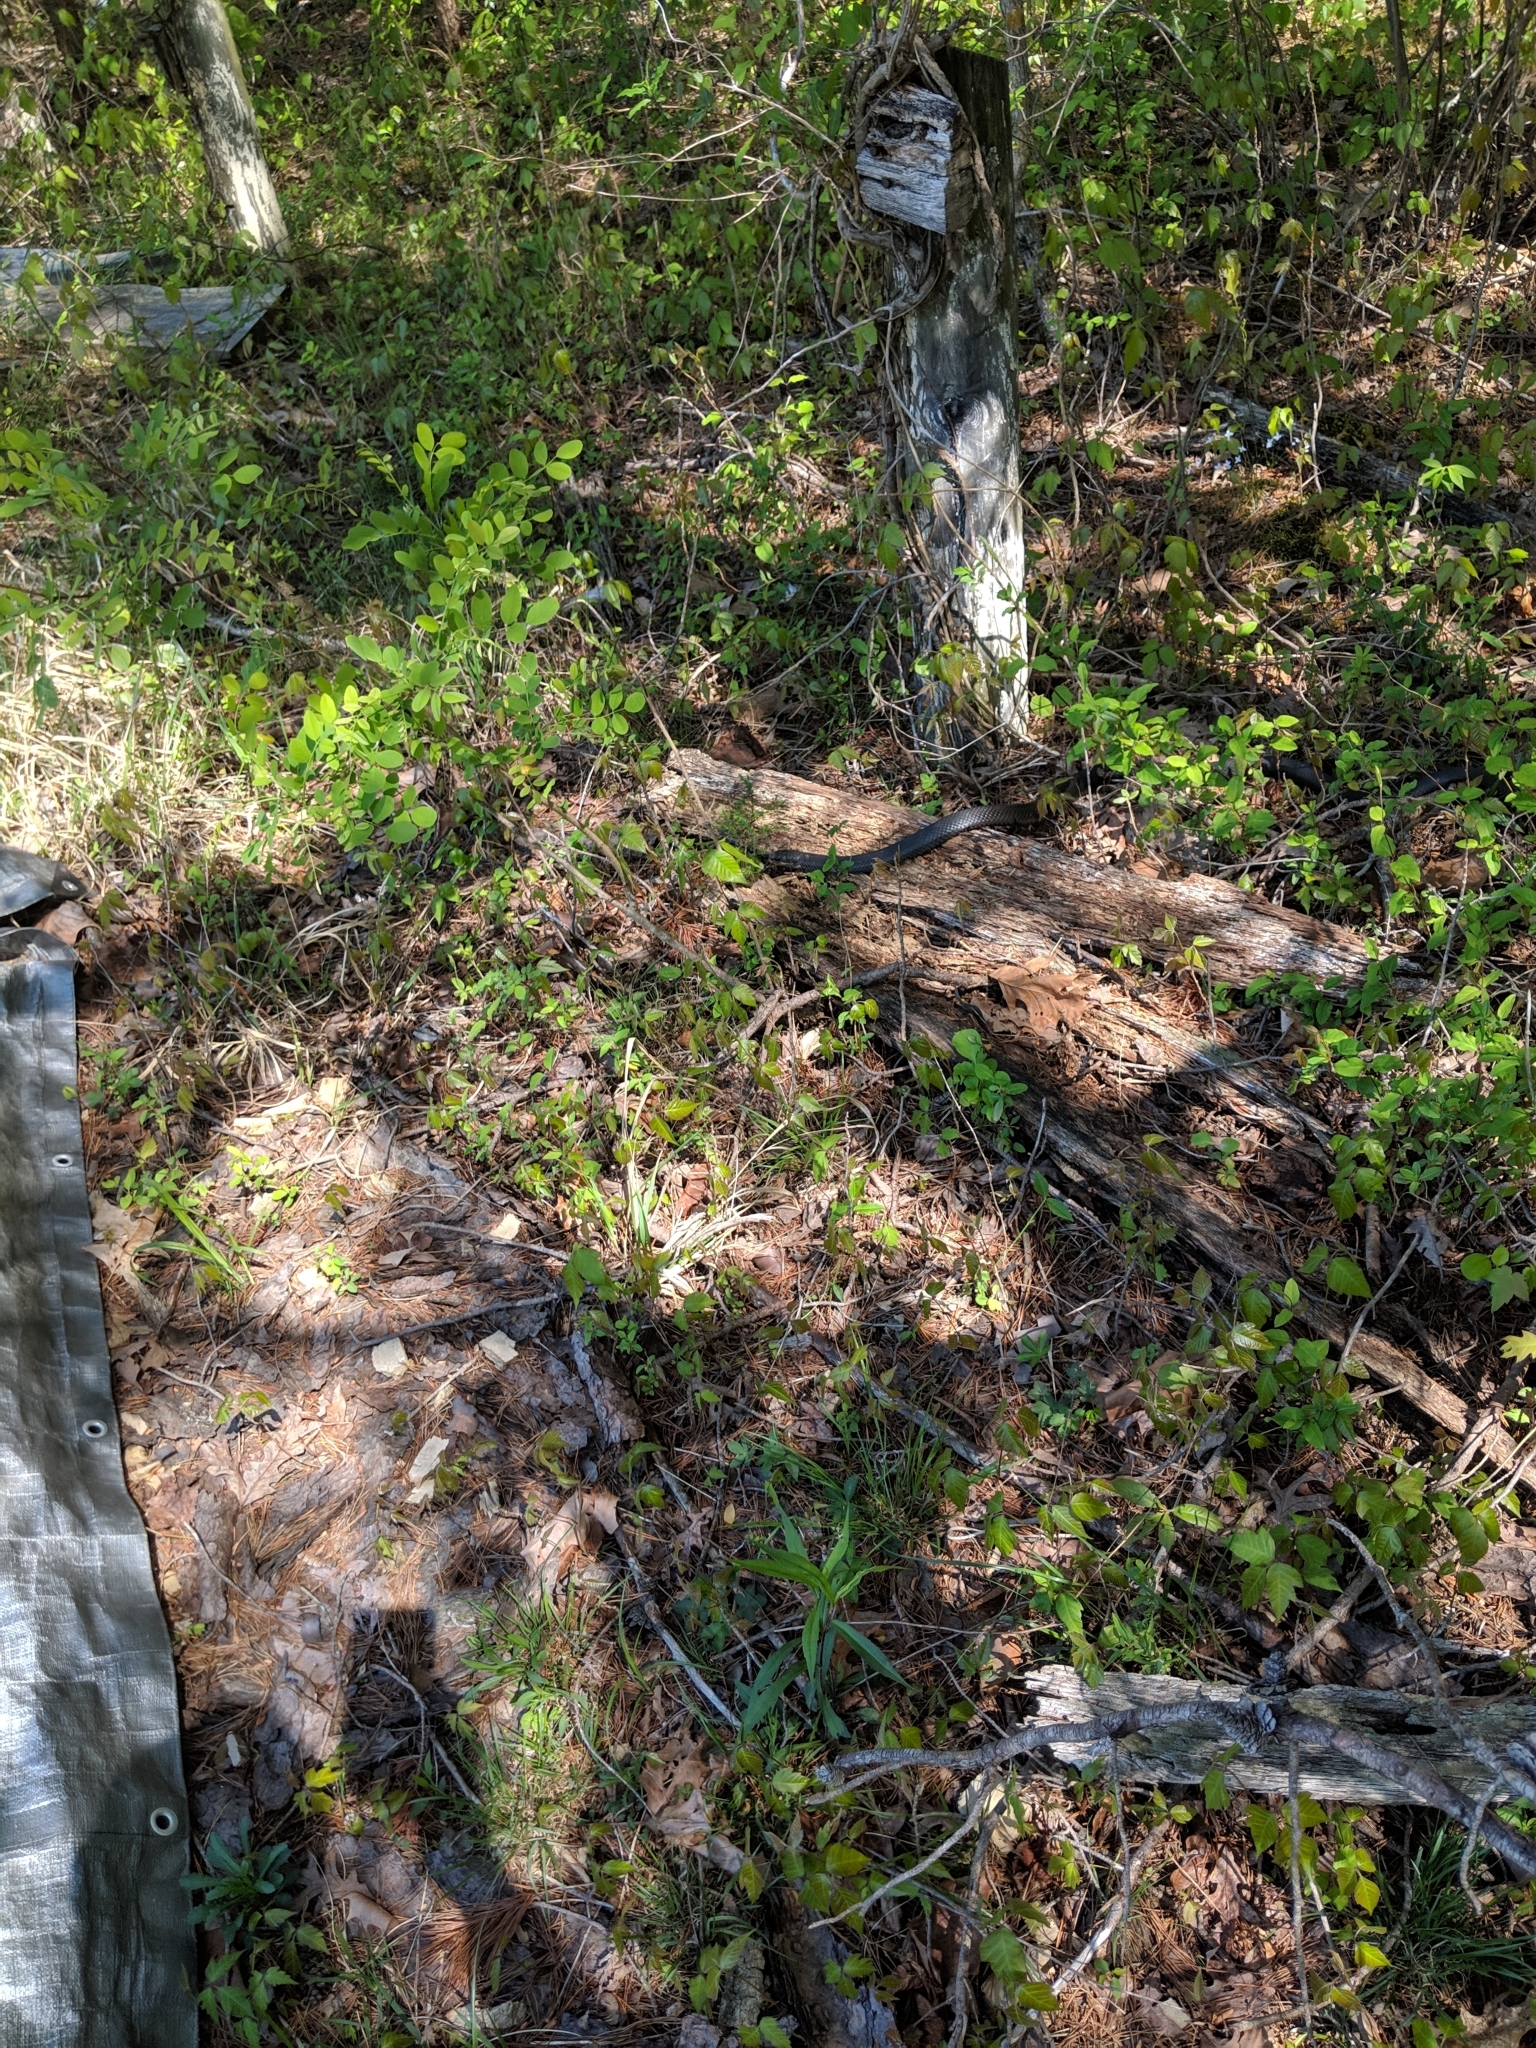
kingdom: Animalia
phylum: Chordata
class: Squamata
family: Colubridae
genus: Coluber
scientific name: Coluber constrictor
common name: Eastern racer
